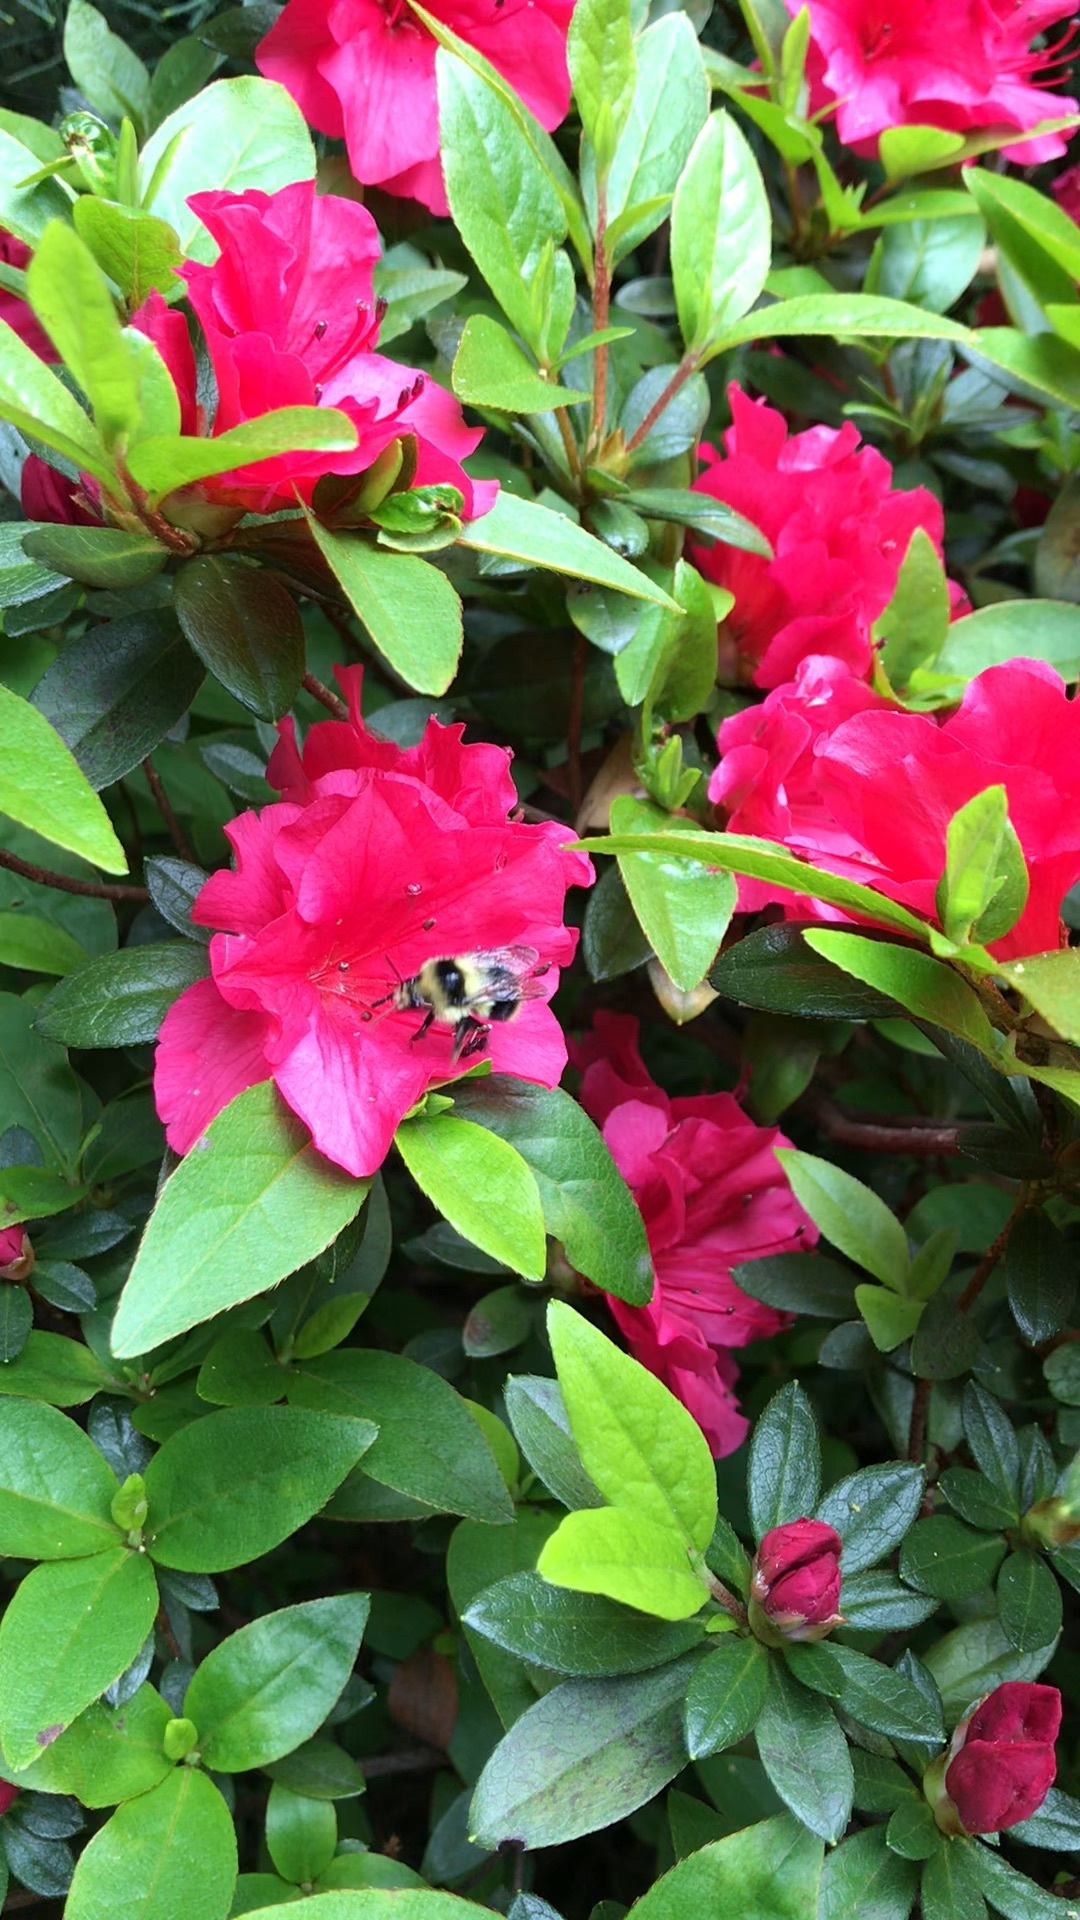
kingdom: Animalia
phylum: Arthropoda
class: Insecta
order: Hymenoptera
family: Apidae
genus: Bombus
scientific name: Bombus melanopygus
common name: Black tail bumble bee
